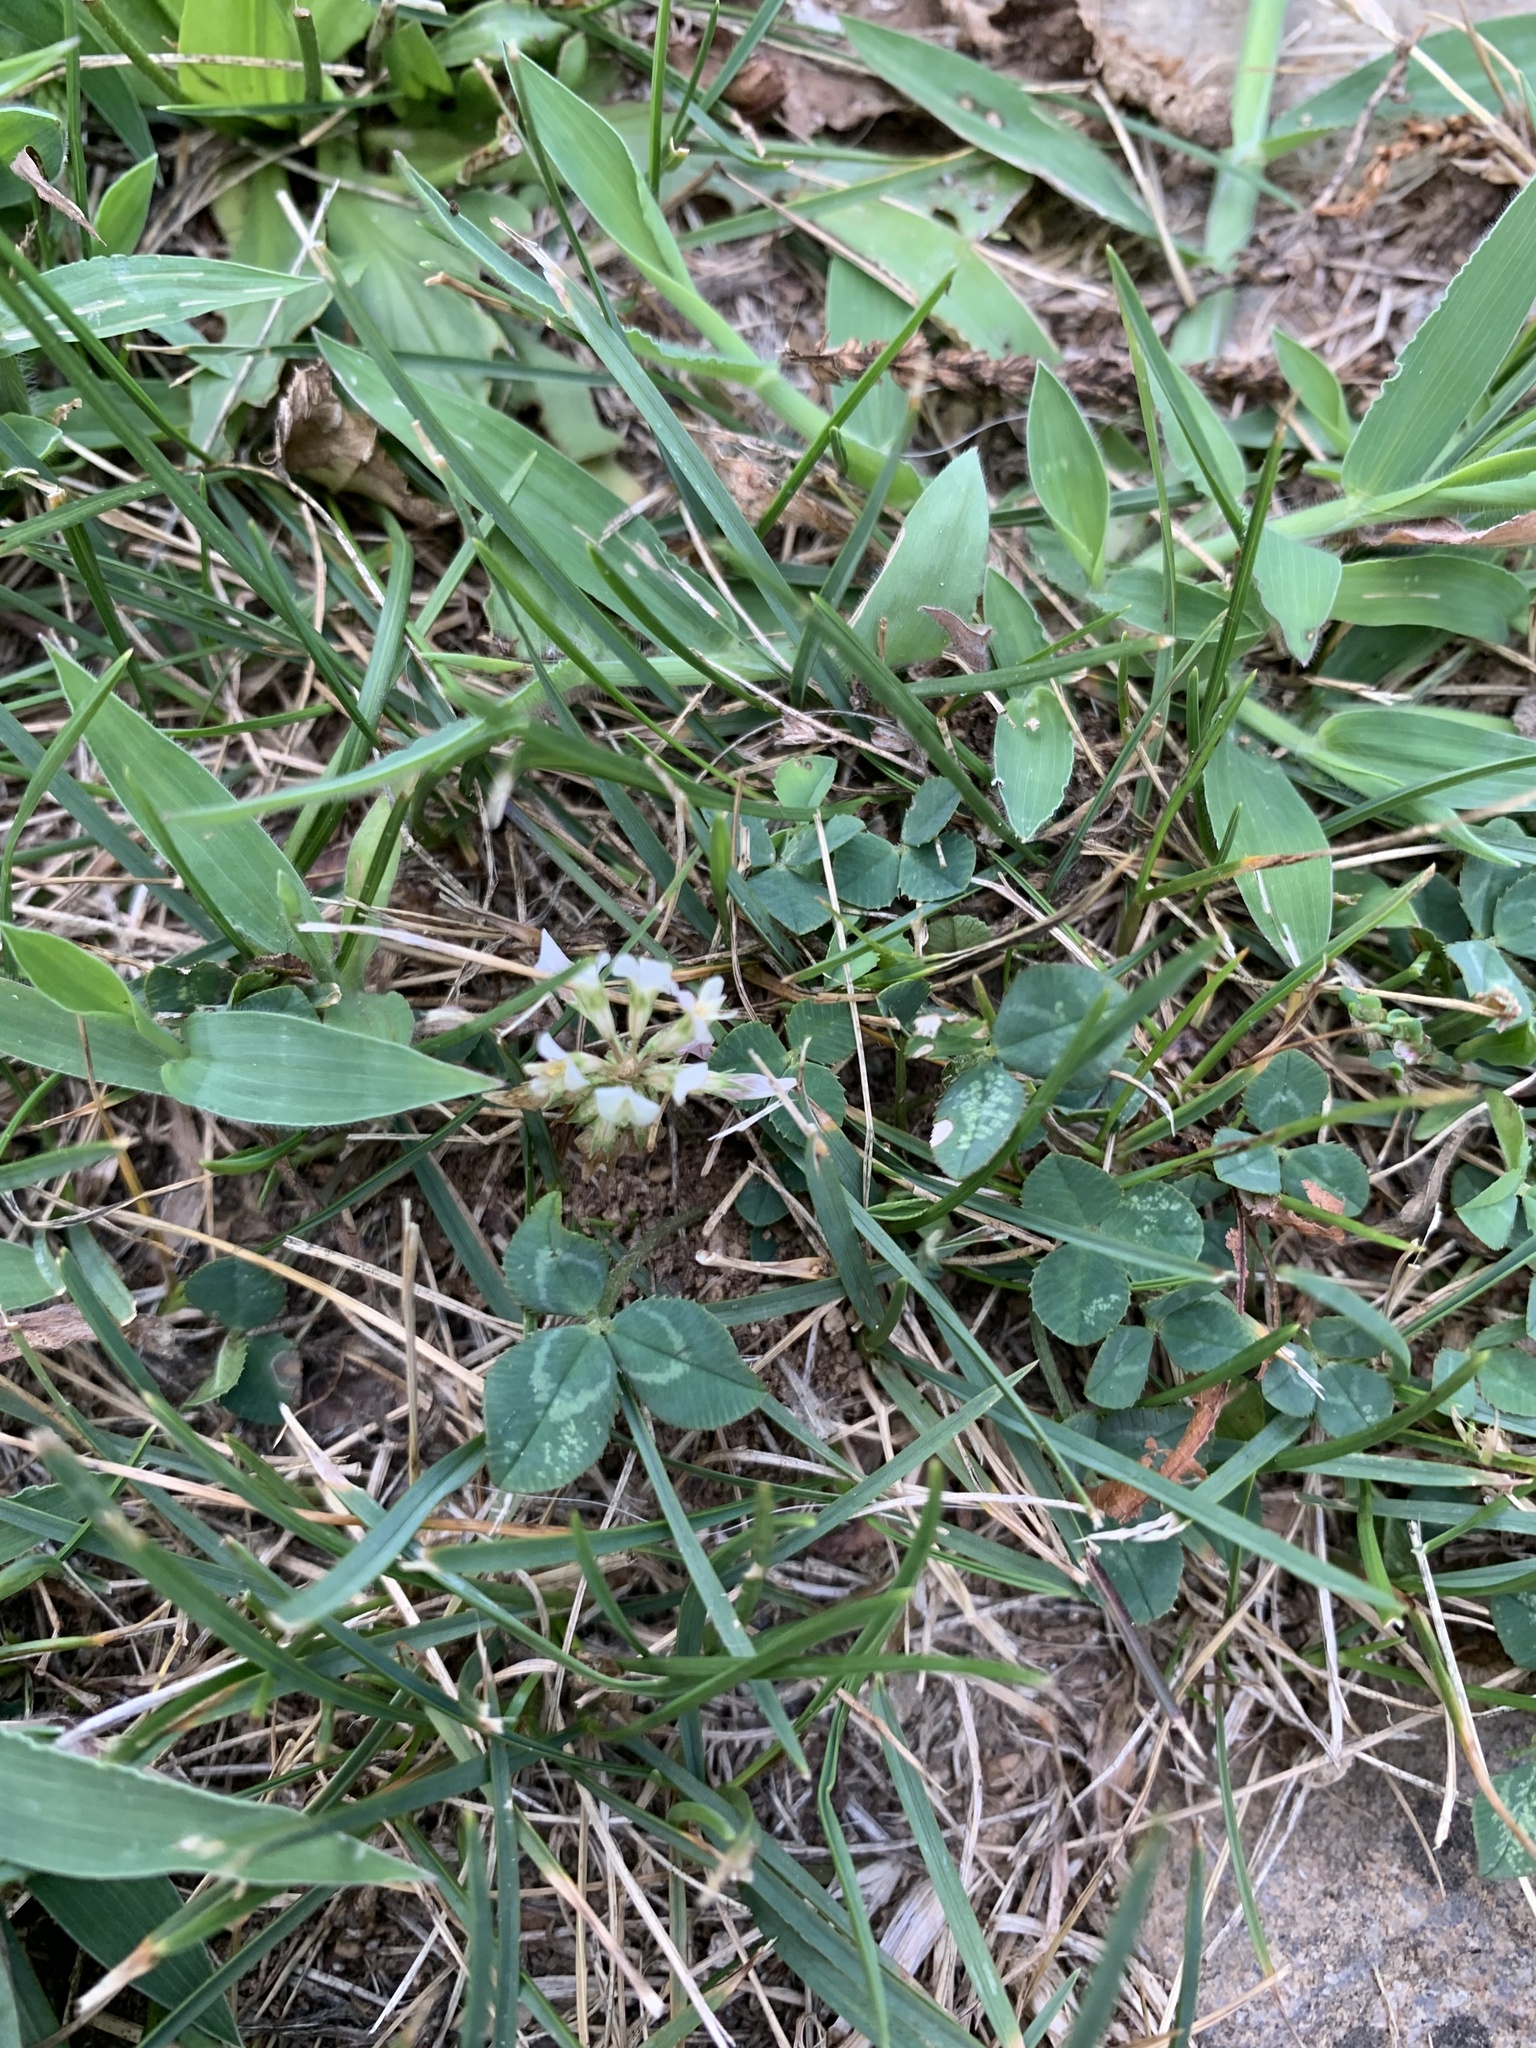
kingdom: Plantae
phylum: Tracheophyta
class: Magnoliopsida
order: Fabales
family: Fabaceae
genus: Trifolium
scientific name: Trifolium repens
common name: White clover
